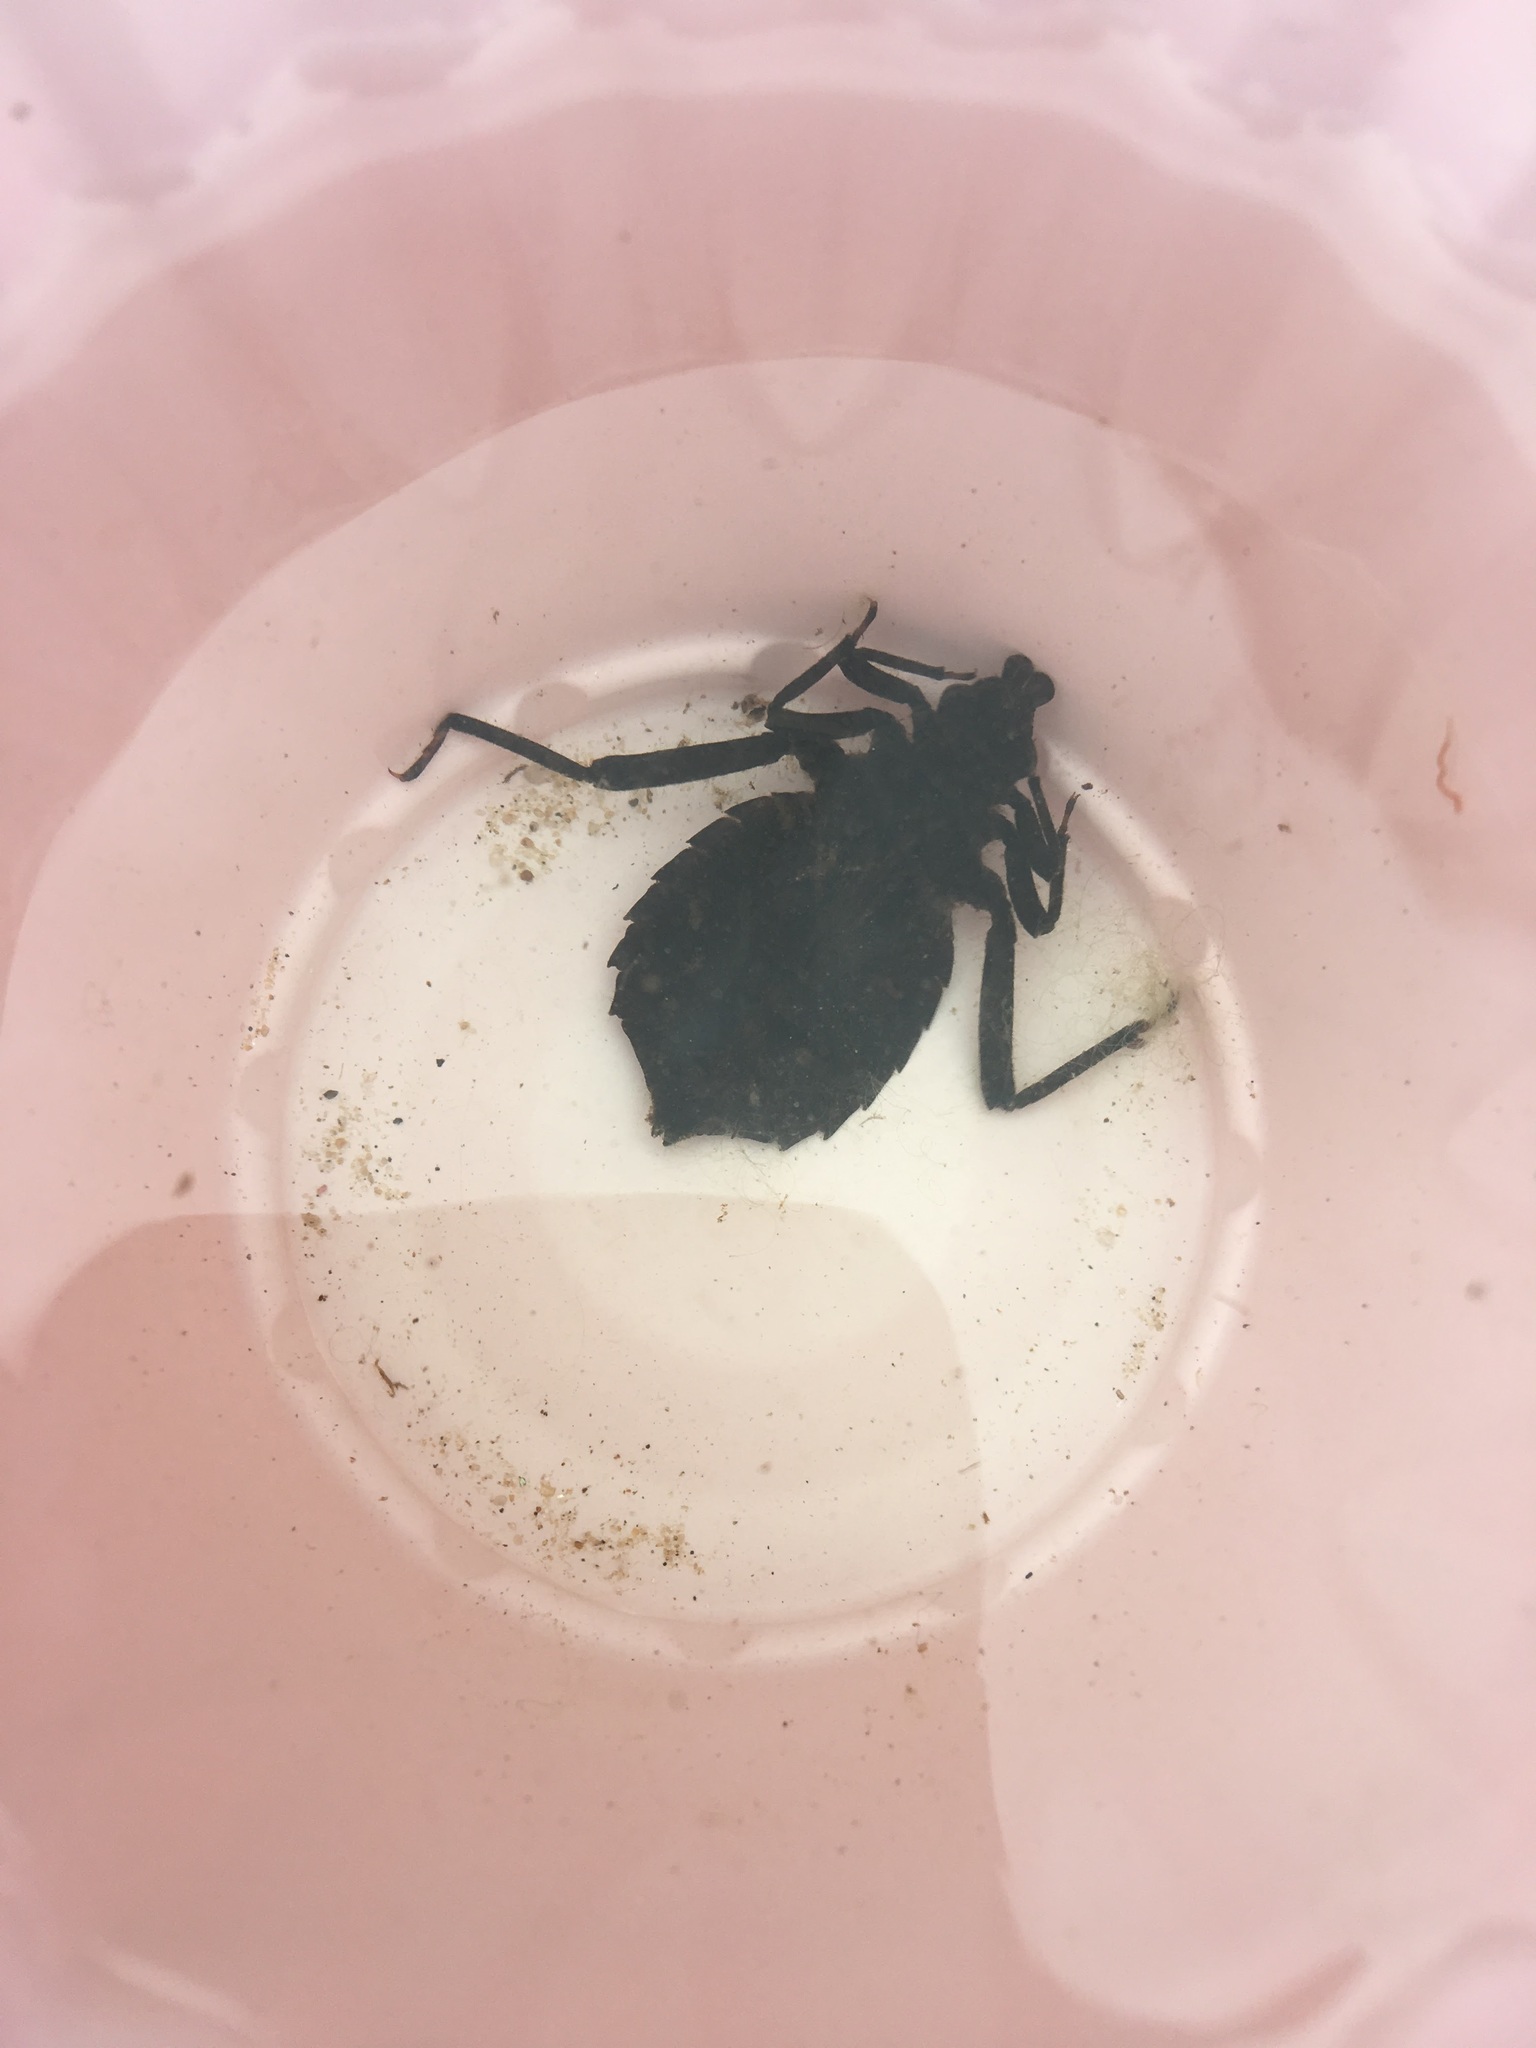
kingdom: Animalia
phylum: Arthropoda
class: Insecta
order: Odonata
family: Gomphidae
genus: Hagenius
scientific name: Hagenius brevistylus
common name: Dragonhunter
